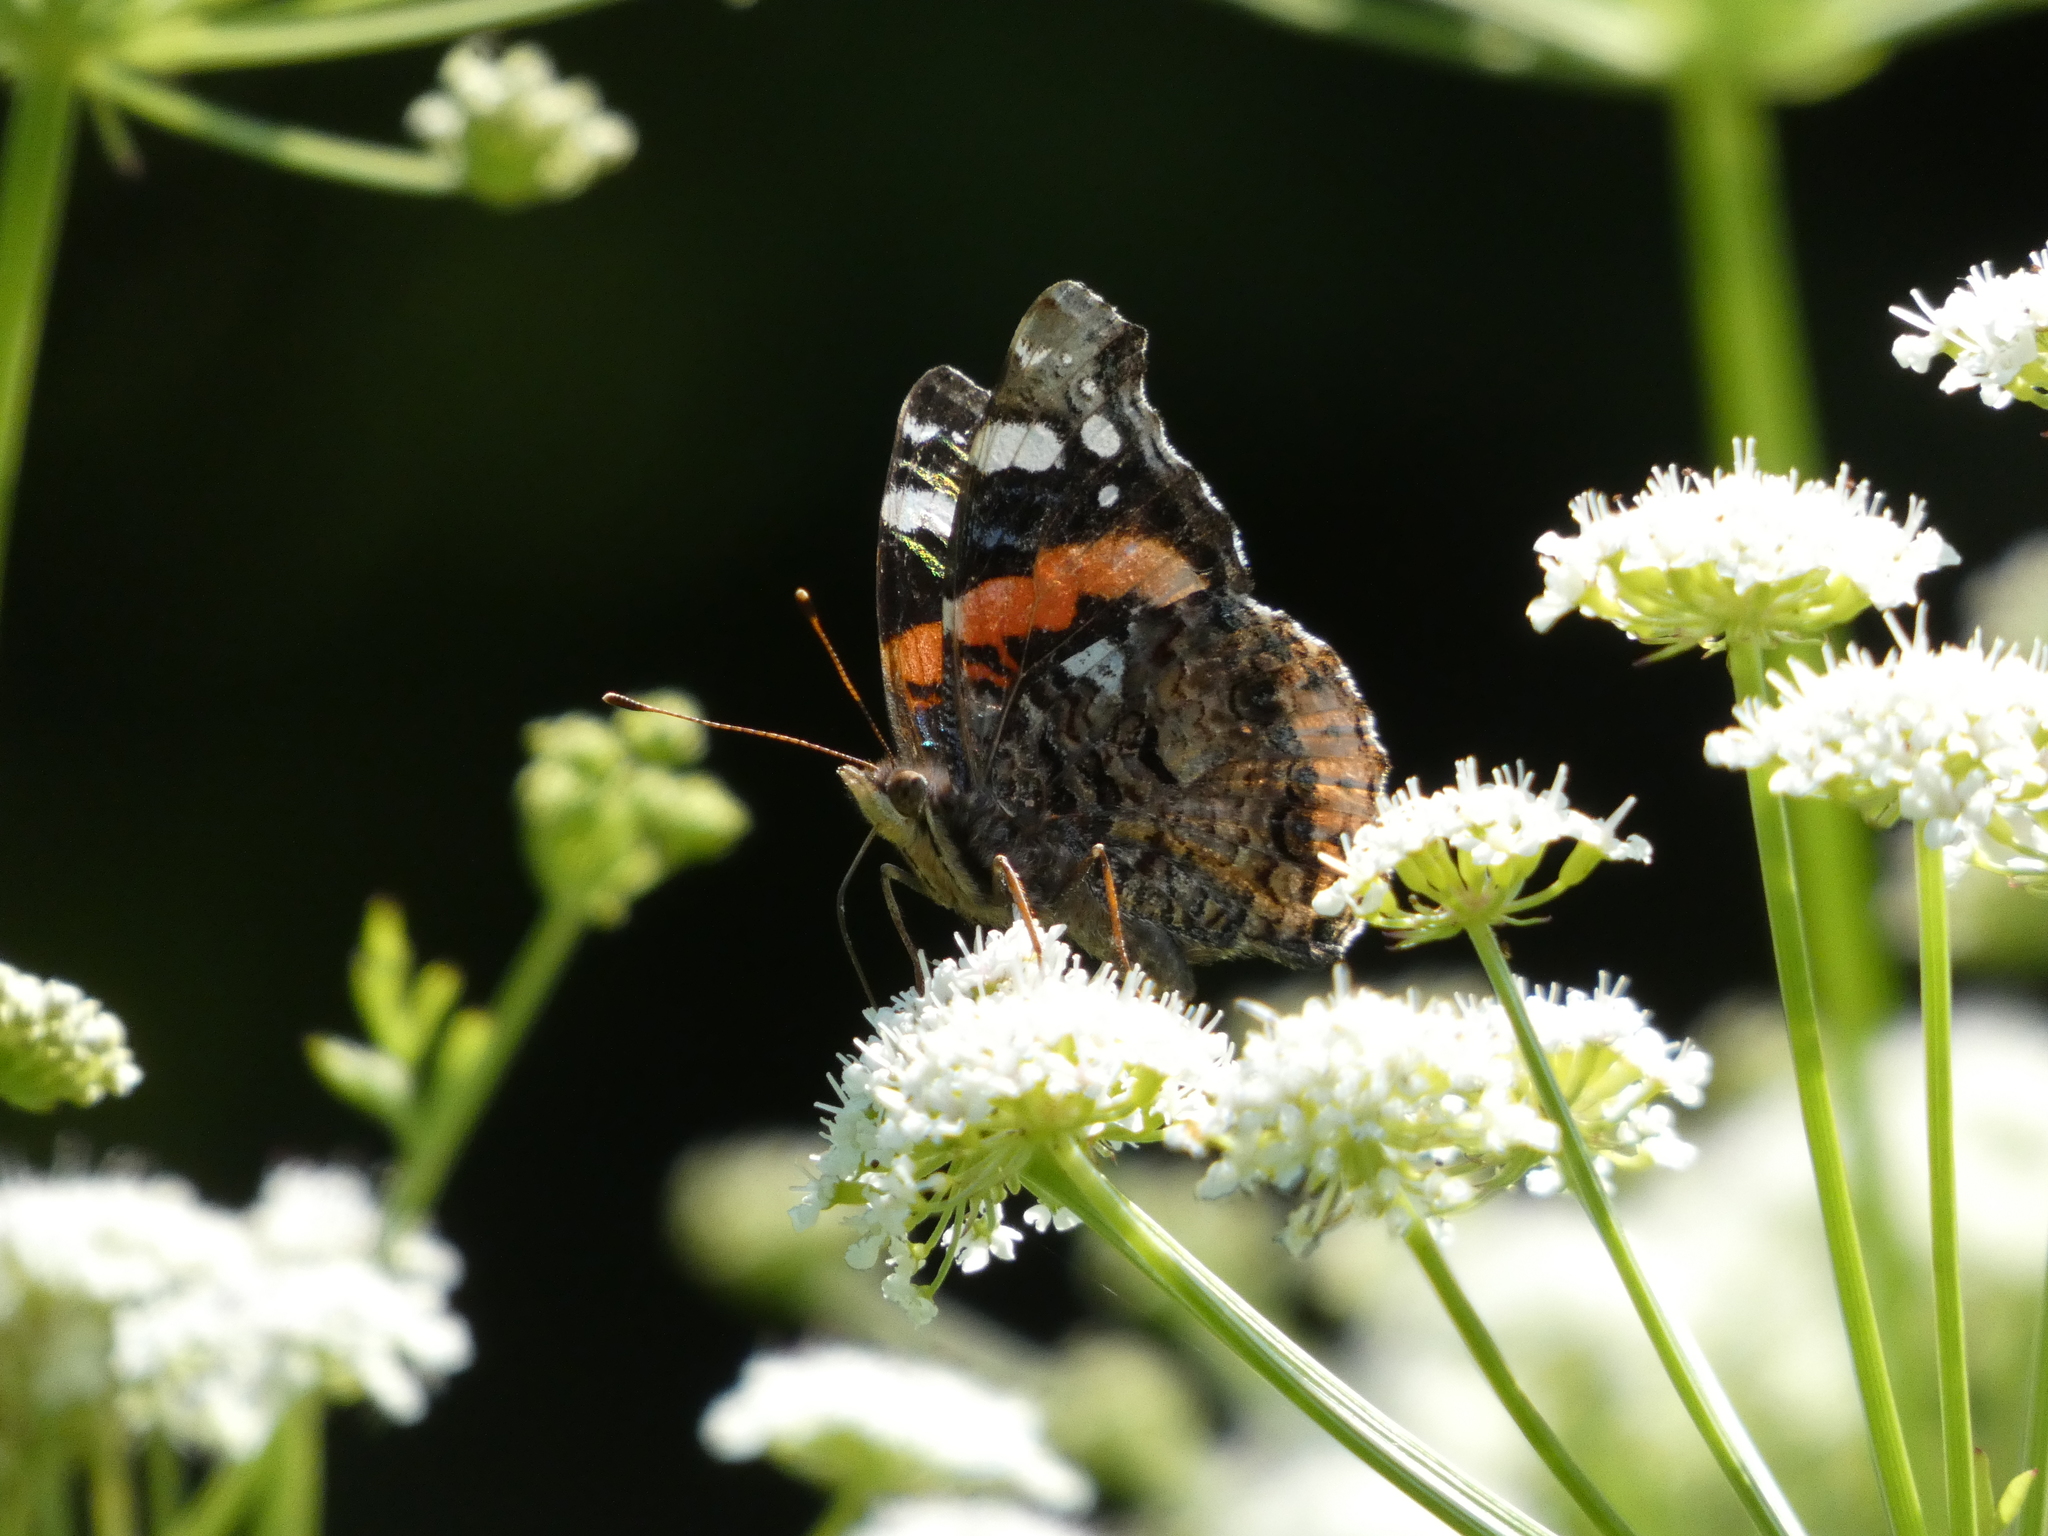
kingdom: Animalia
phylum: Arthropoda
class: Insecta
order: Lepidoptera
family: Nymphalidae
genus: Vanessa
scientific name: Vanessa atalanta
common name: Red admiral
